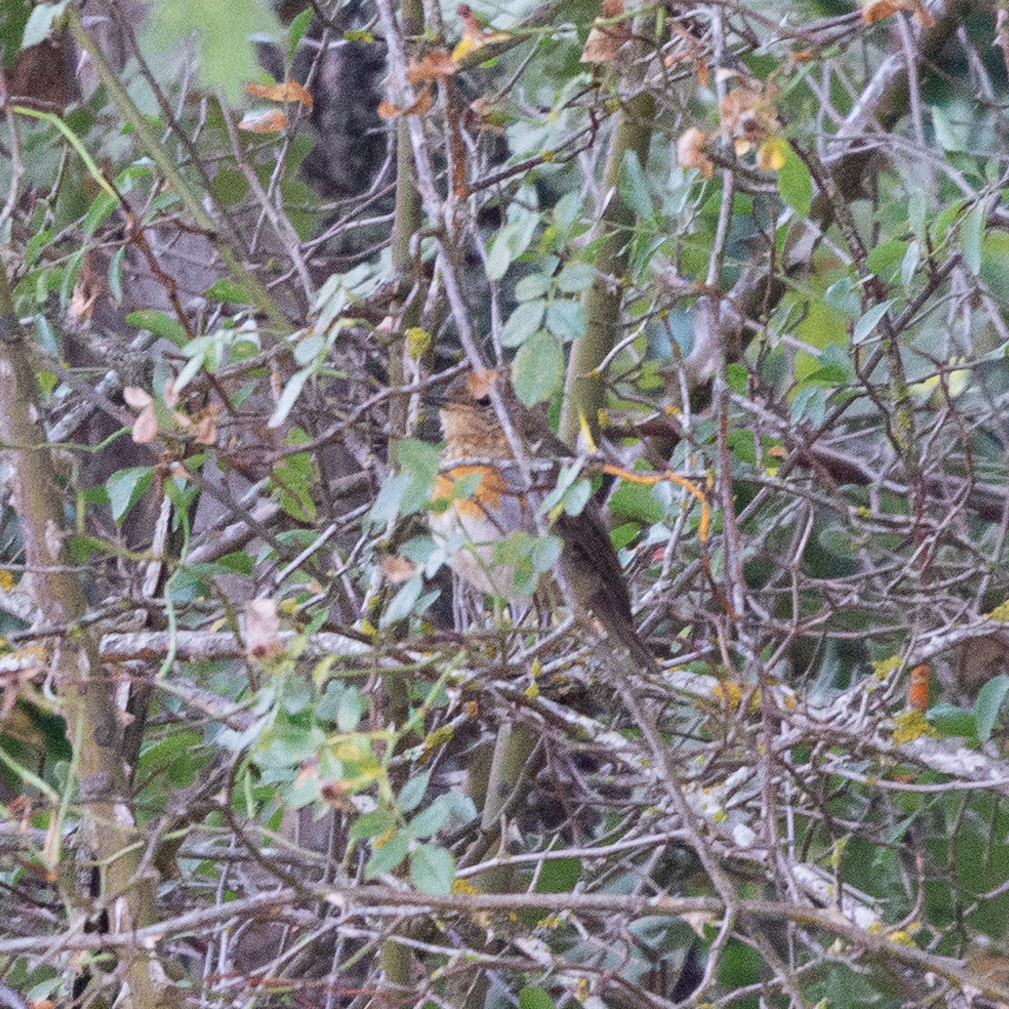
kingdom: Animalia
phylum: Chordata
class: Aves
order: Passeriformes
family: Muscicapidae
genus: Erithacus
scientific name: Erithacus rubecula
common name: European robin
